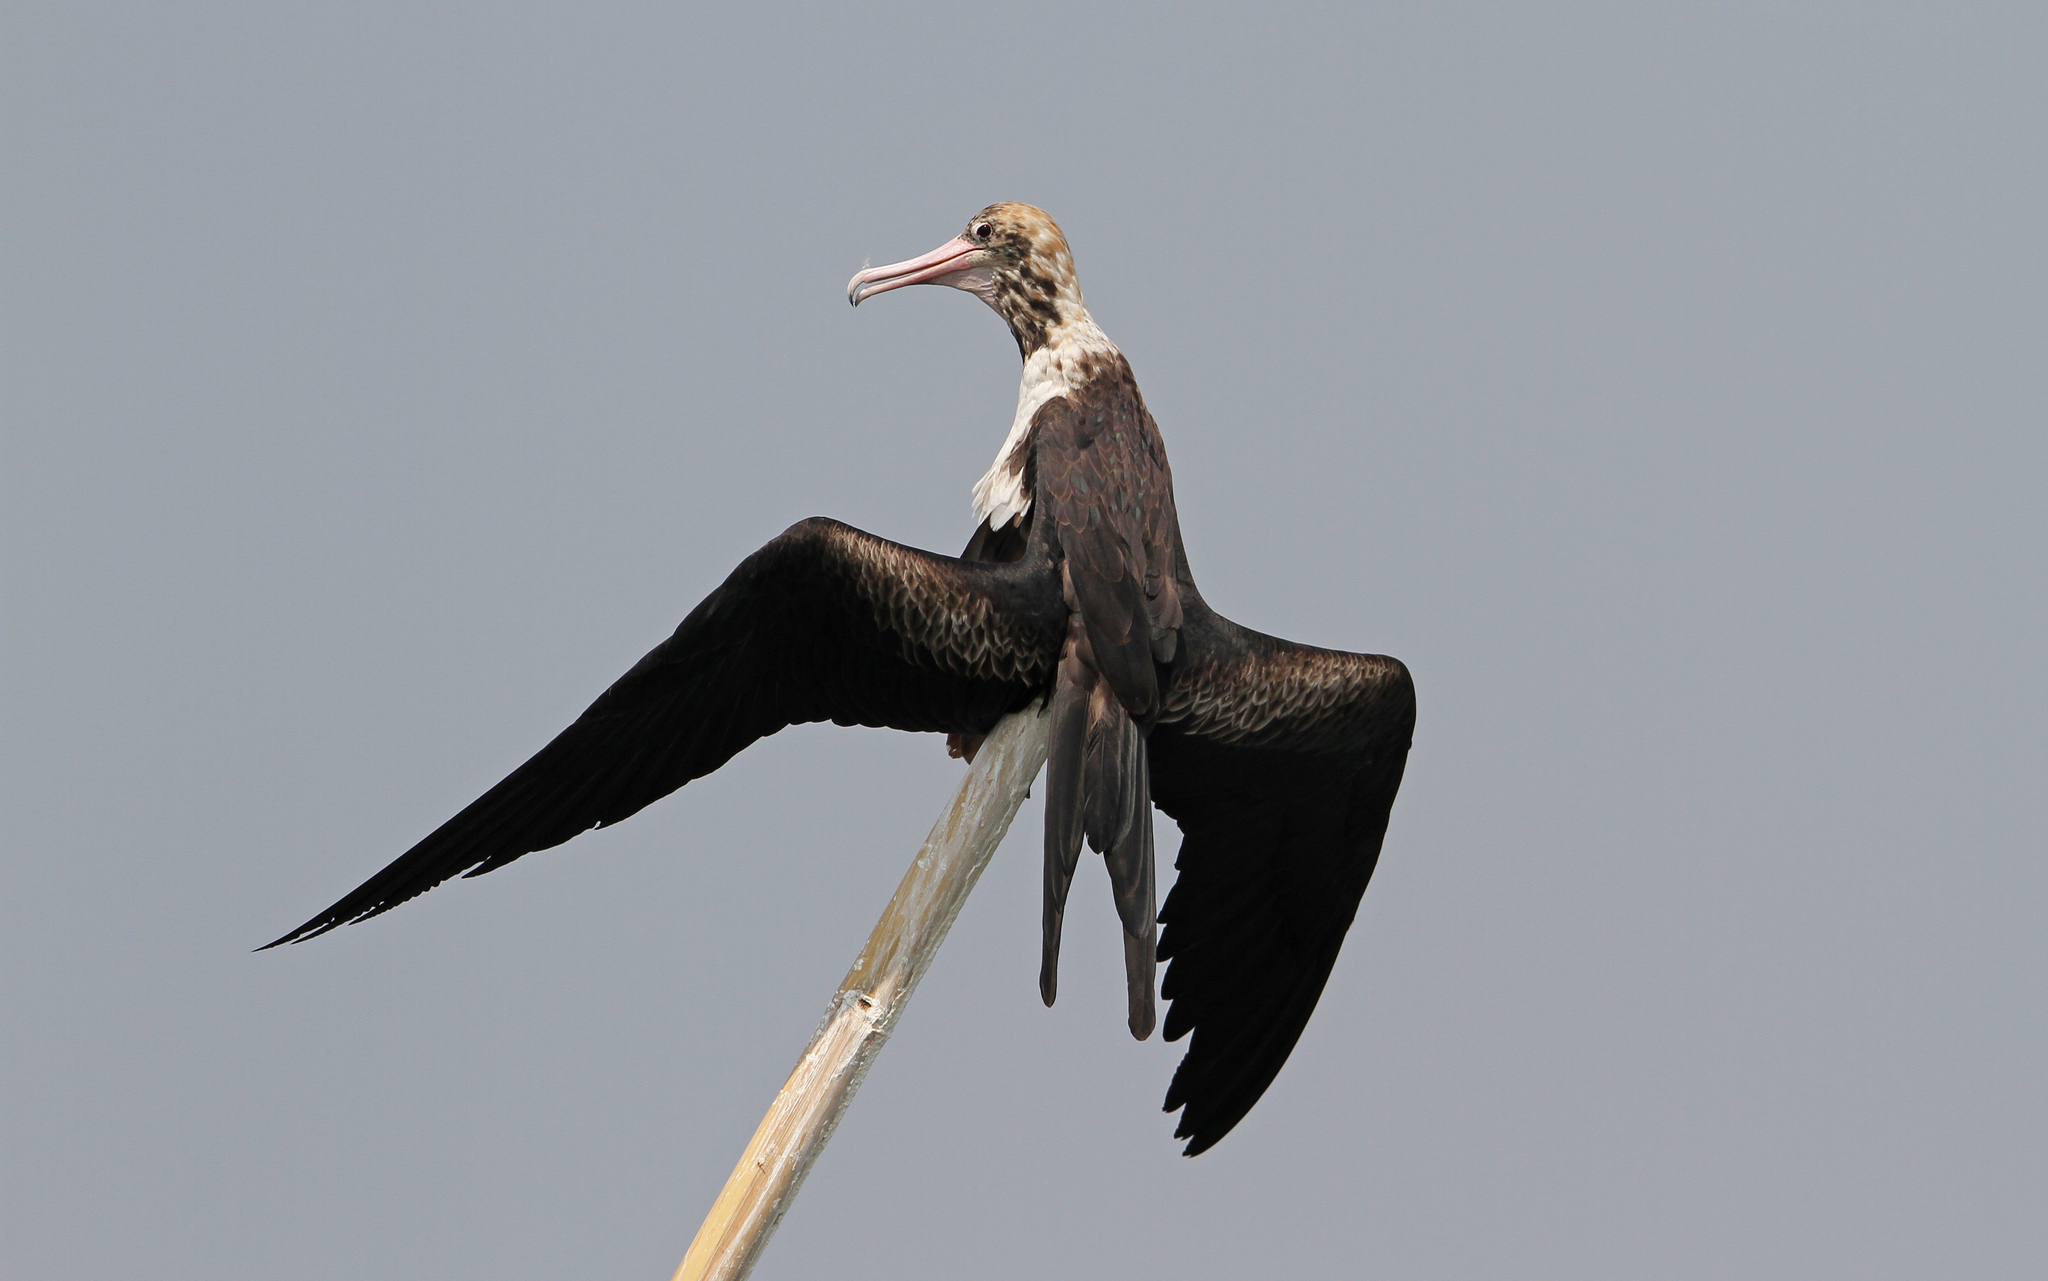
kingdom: Animalia
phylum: Chordata
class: Aves
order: Suliformes
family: Fregatidae
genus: Fregata
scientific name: Fregata andrewsi
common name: Christmas frigatebird
